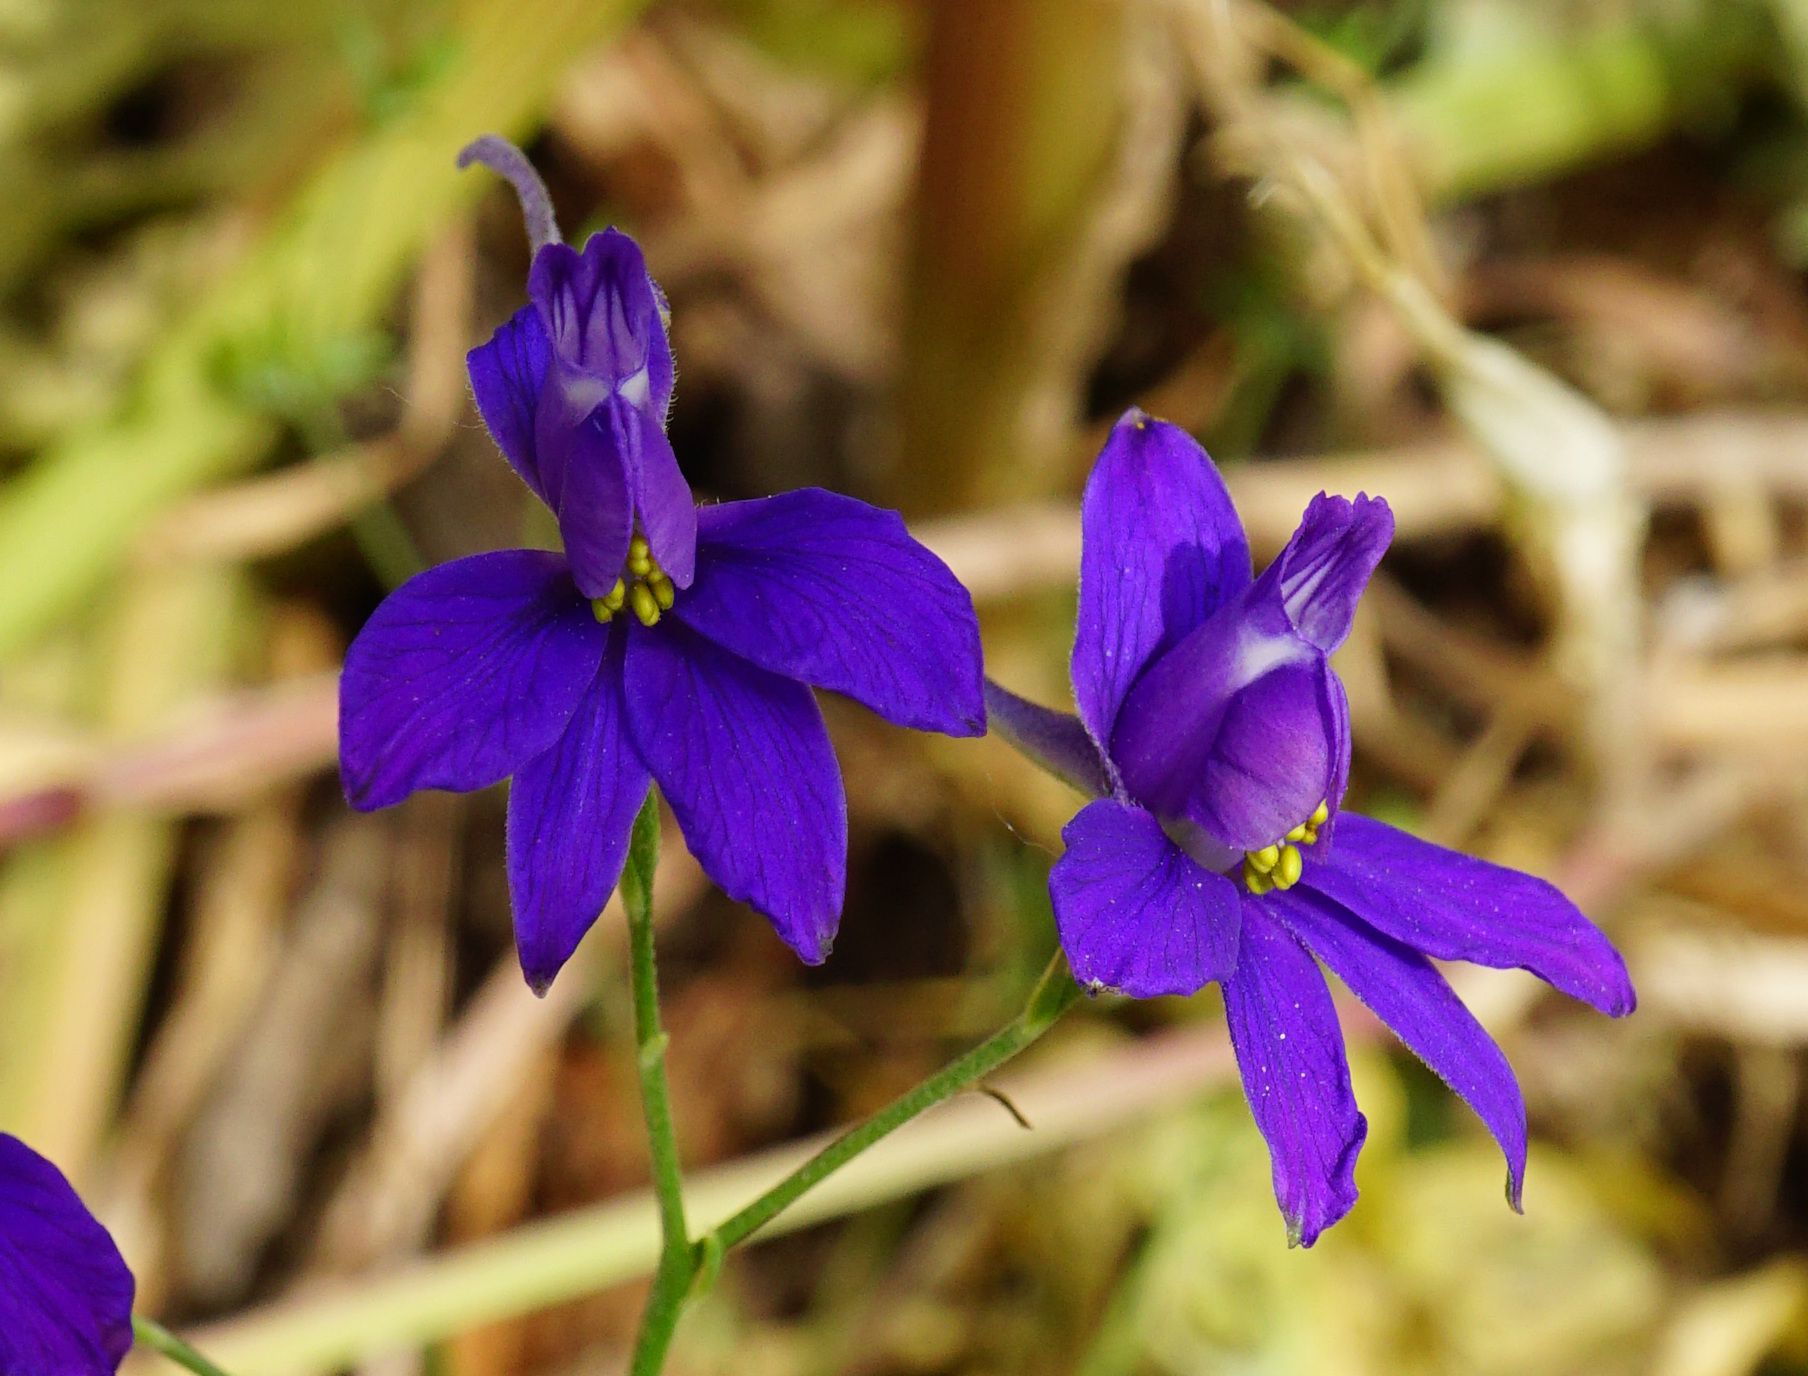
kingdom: Plantae
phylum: Tracheophyta
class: Magnoliopsida
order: Ranunculales
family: Ranunculaceae
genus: Delphinium
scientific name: Delphinium consolida
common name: Branching larkspur
